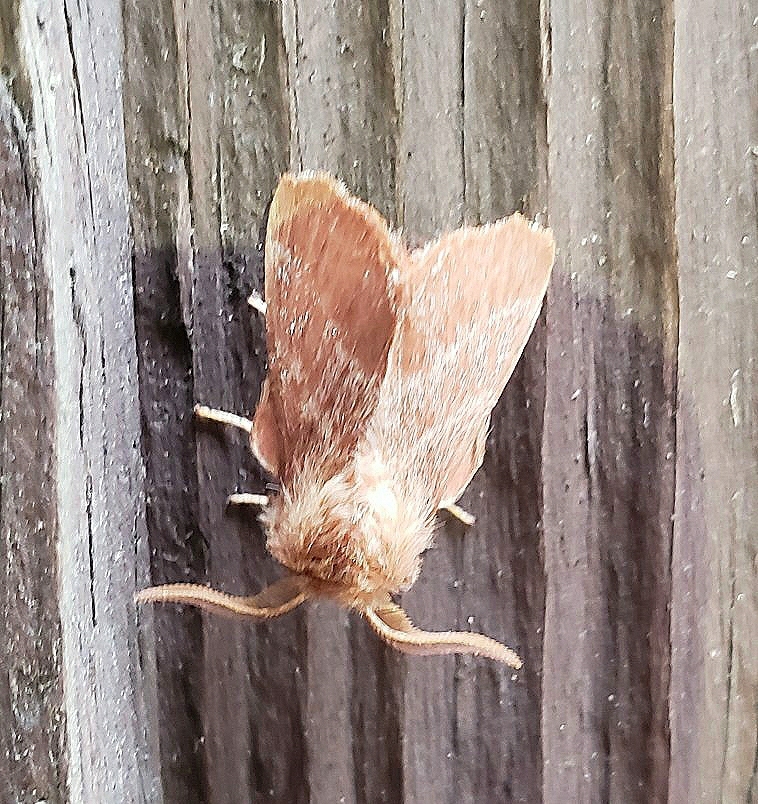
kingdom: Animalia
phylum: Arthropoda
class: Insecta
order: Lepidoptera
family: Lasiocampidae
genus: Malacosoma
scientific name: Malacosoma americana
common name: Eastern tent caterpillar moth
